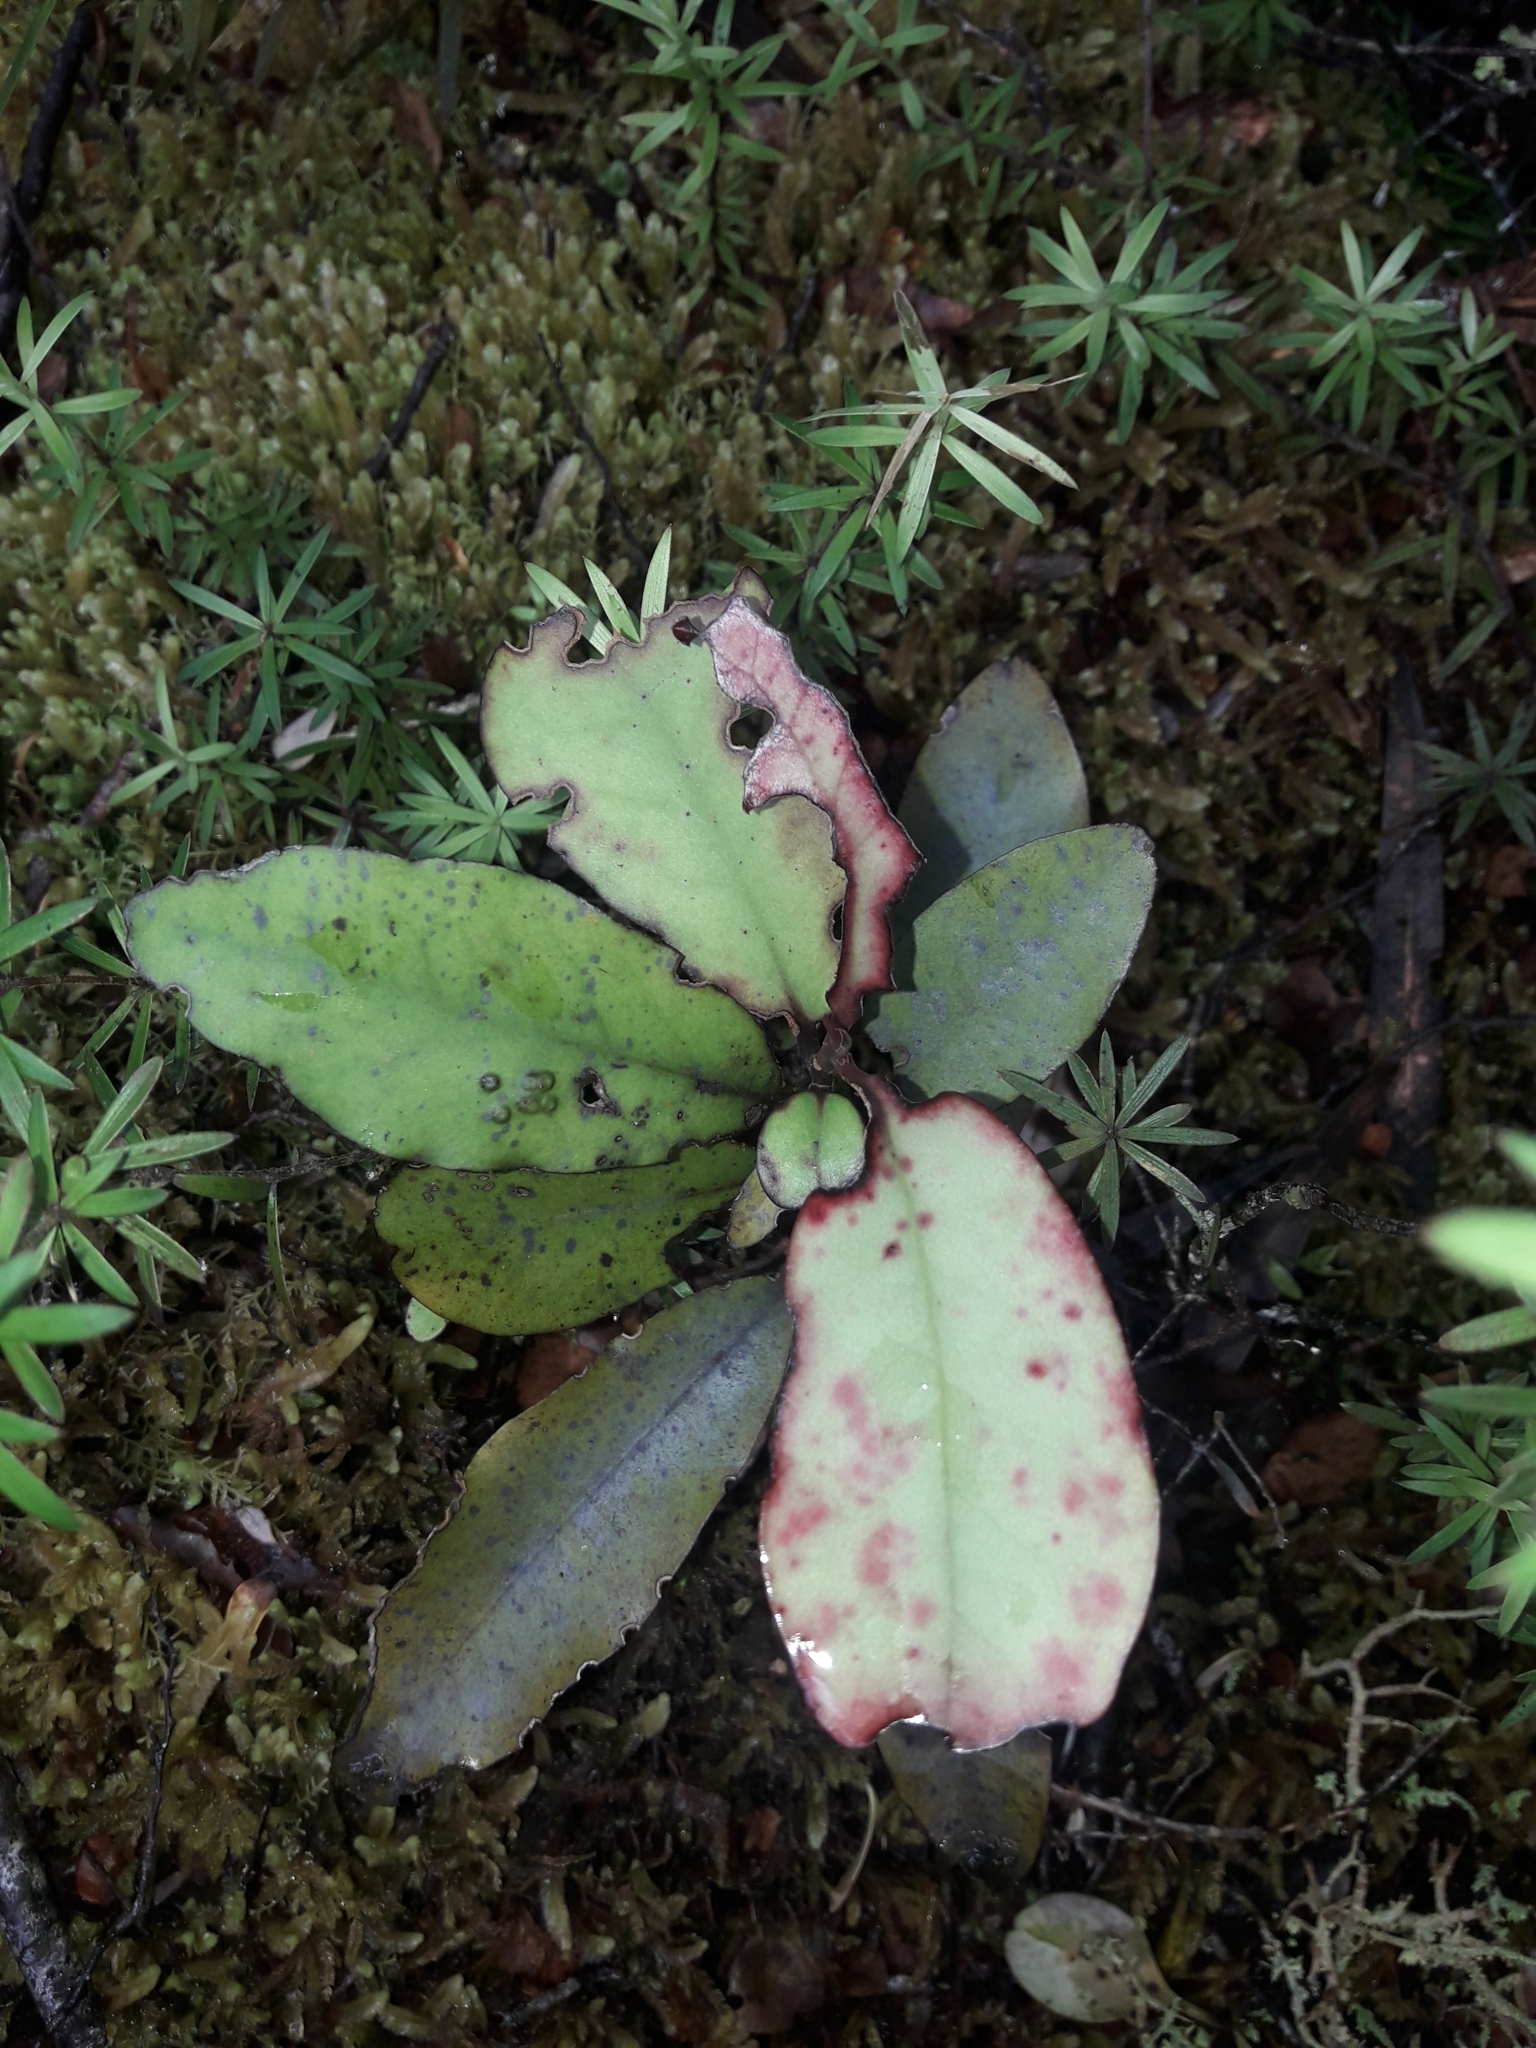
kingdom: Plantae
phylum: Tracheophyta
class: Magnoliopsida
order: Canellales
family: Winteraceae
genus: Pseudowintera
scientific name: Pseudowintera colorata
